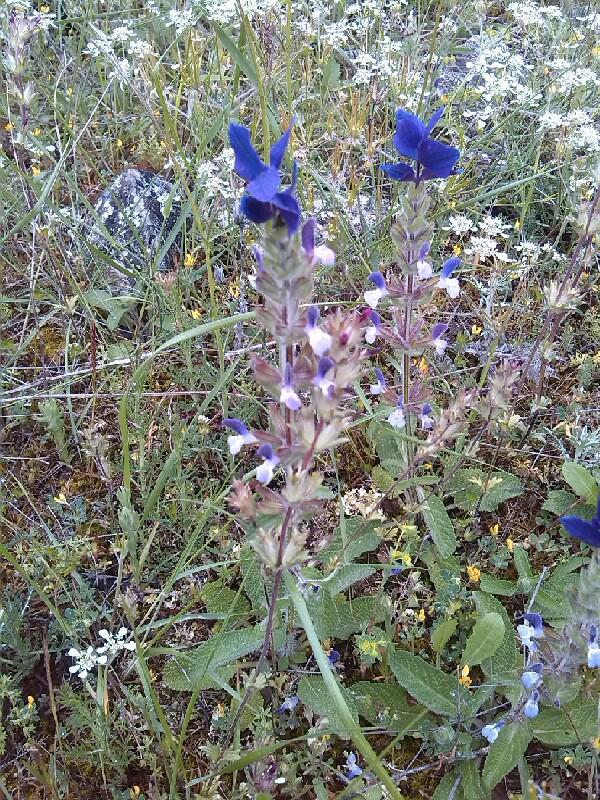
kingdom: Plantae
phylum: Tracheophyta
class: Magnoliopsida
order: Lamiales
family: Lamiaceae
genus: Salvia
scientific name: Salvia viridis
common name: Annual clary
